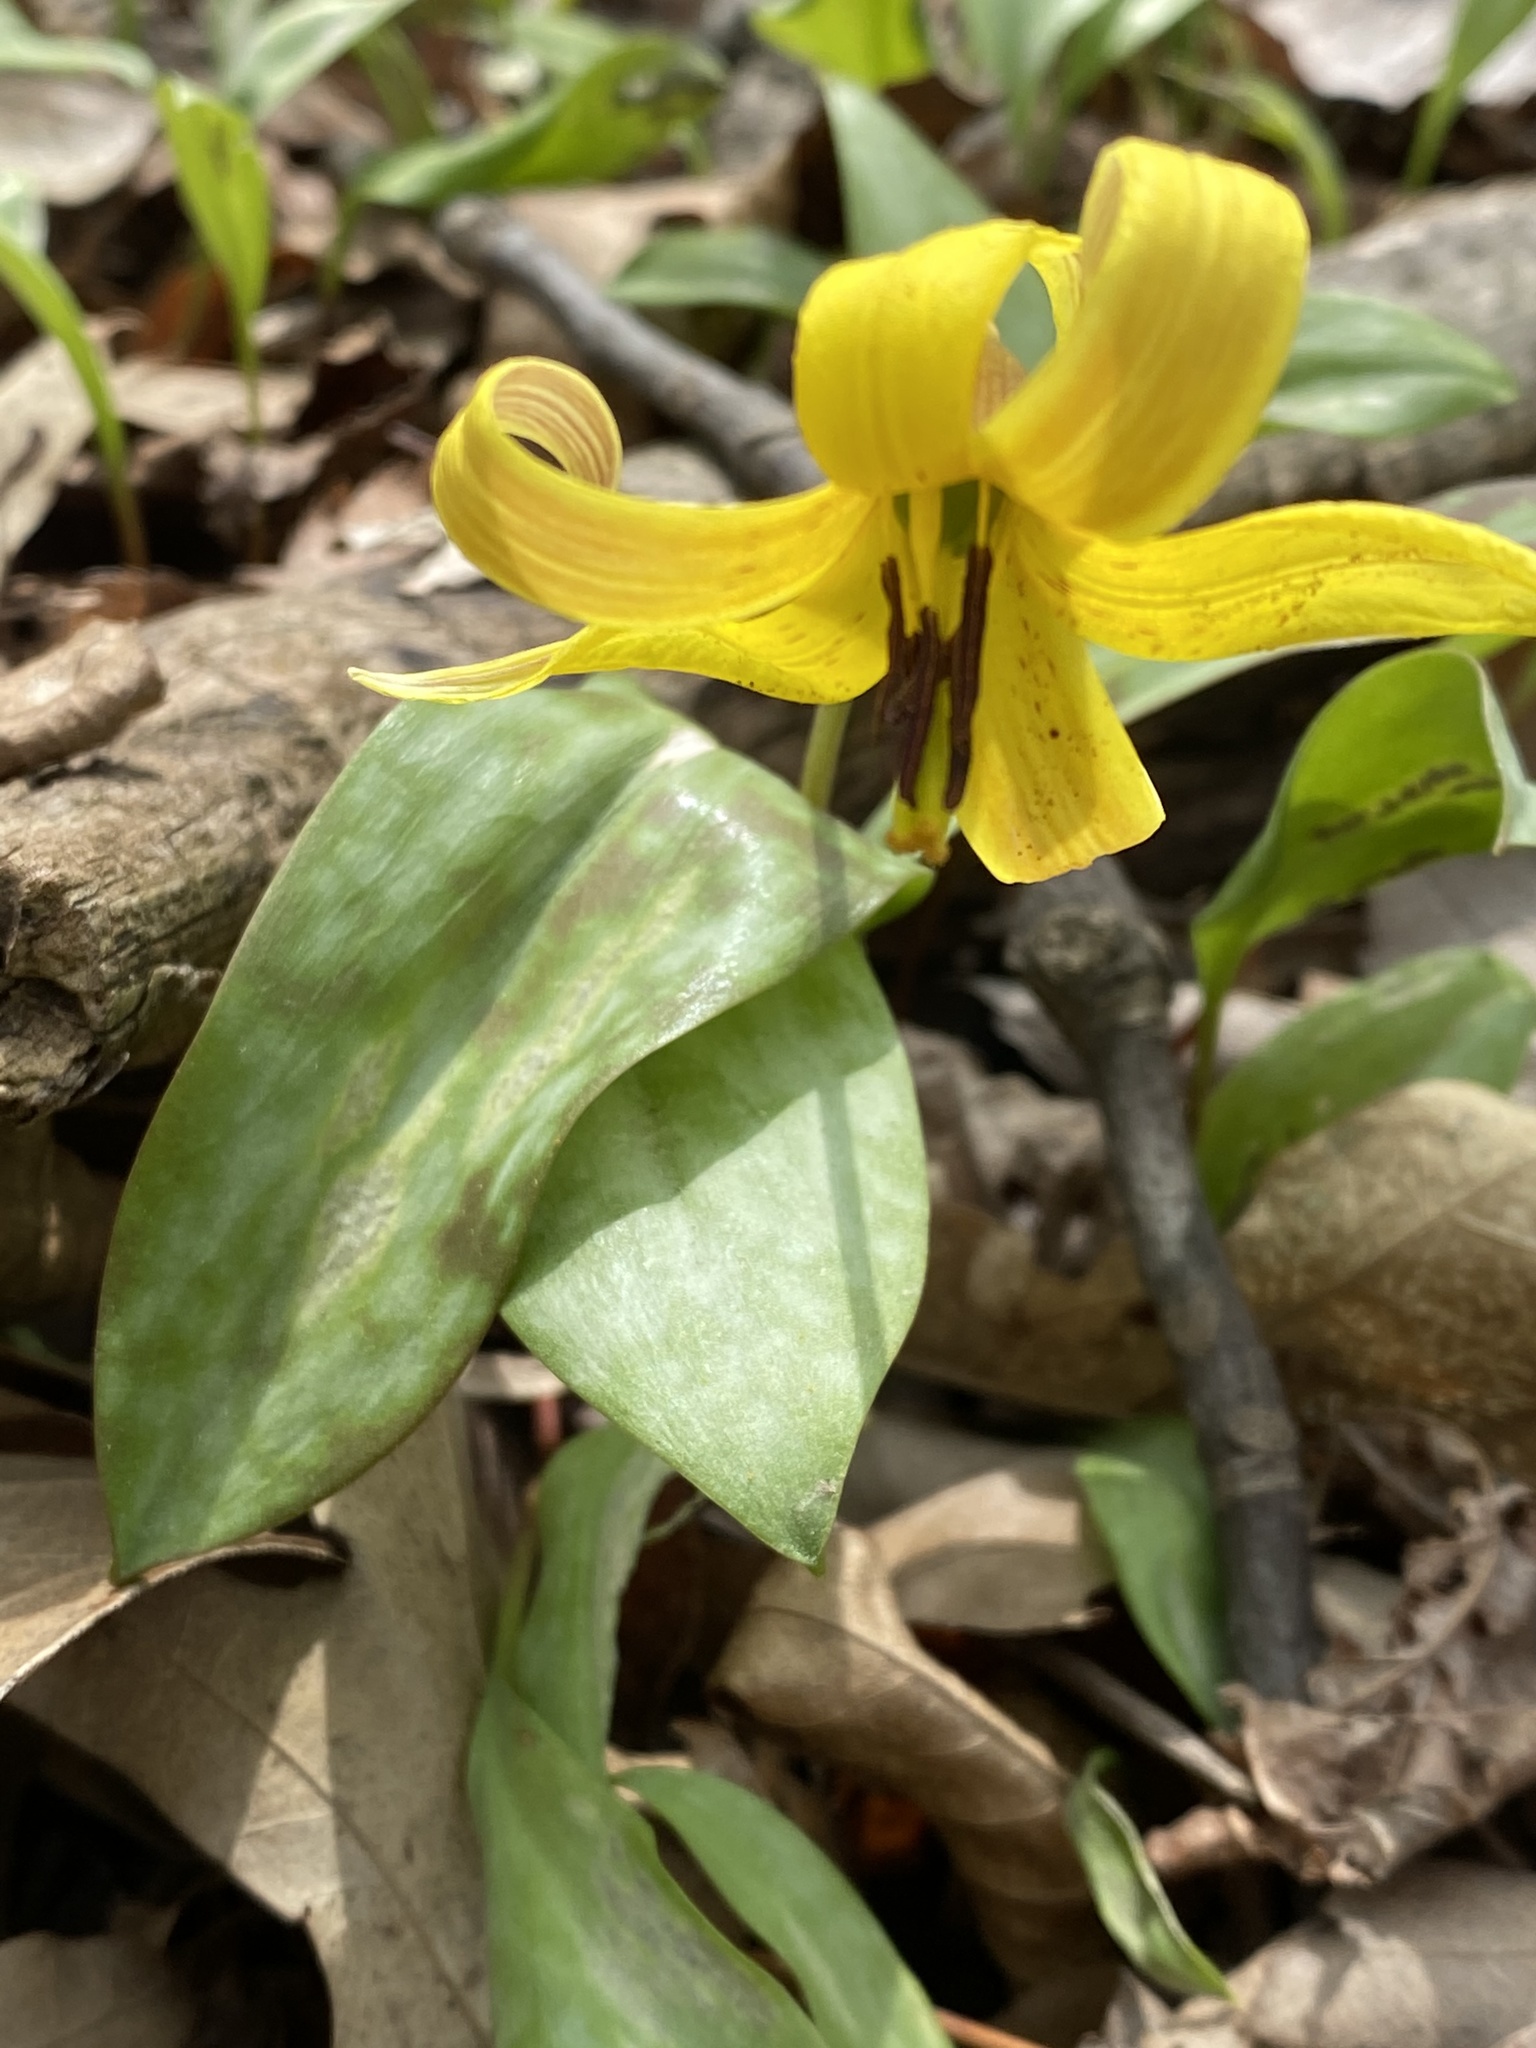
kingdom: Plantae
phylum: Tracheophyta
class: Liliopsida
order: Liliales
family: Liliaceae
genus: Erythronium
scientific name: Erythronium americanum
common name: Yellow adder's-tongue
